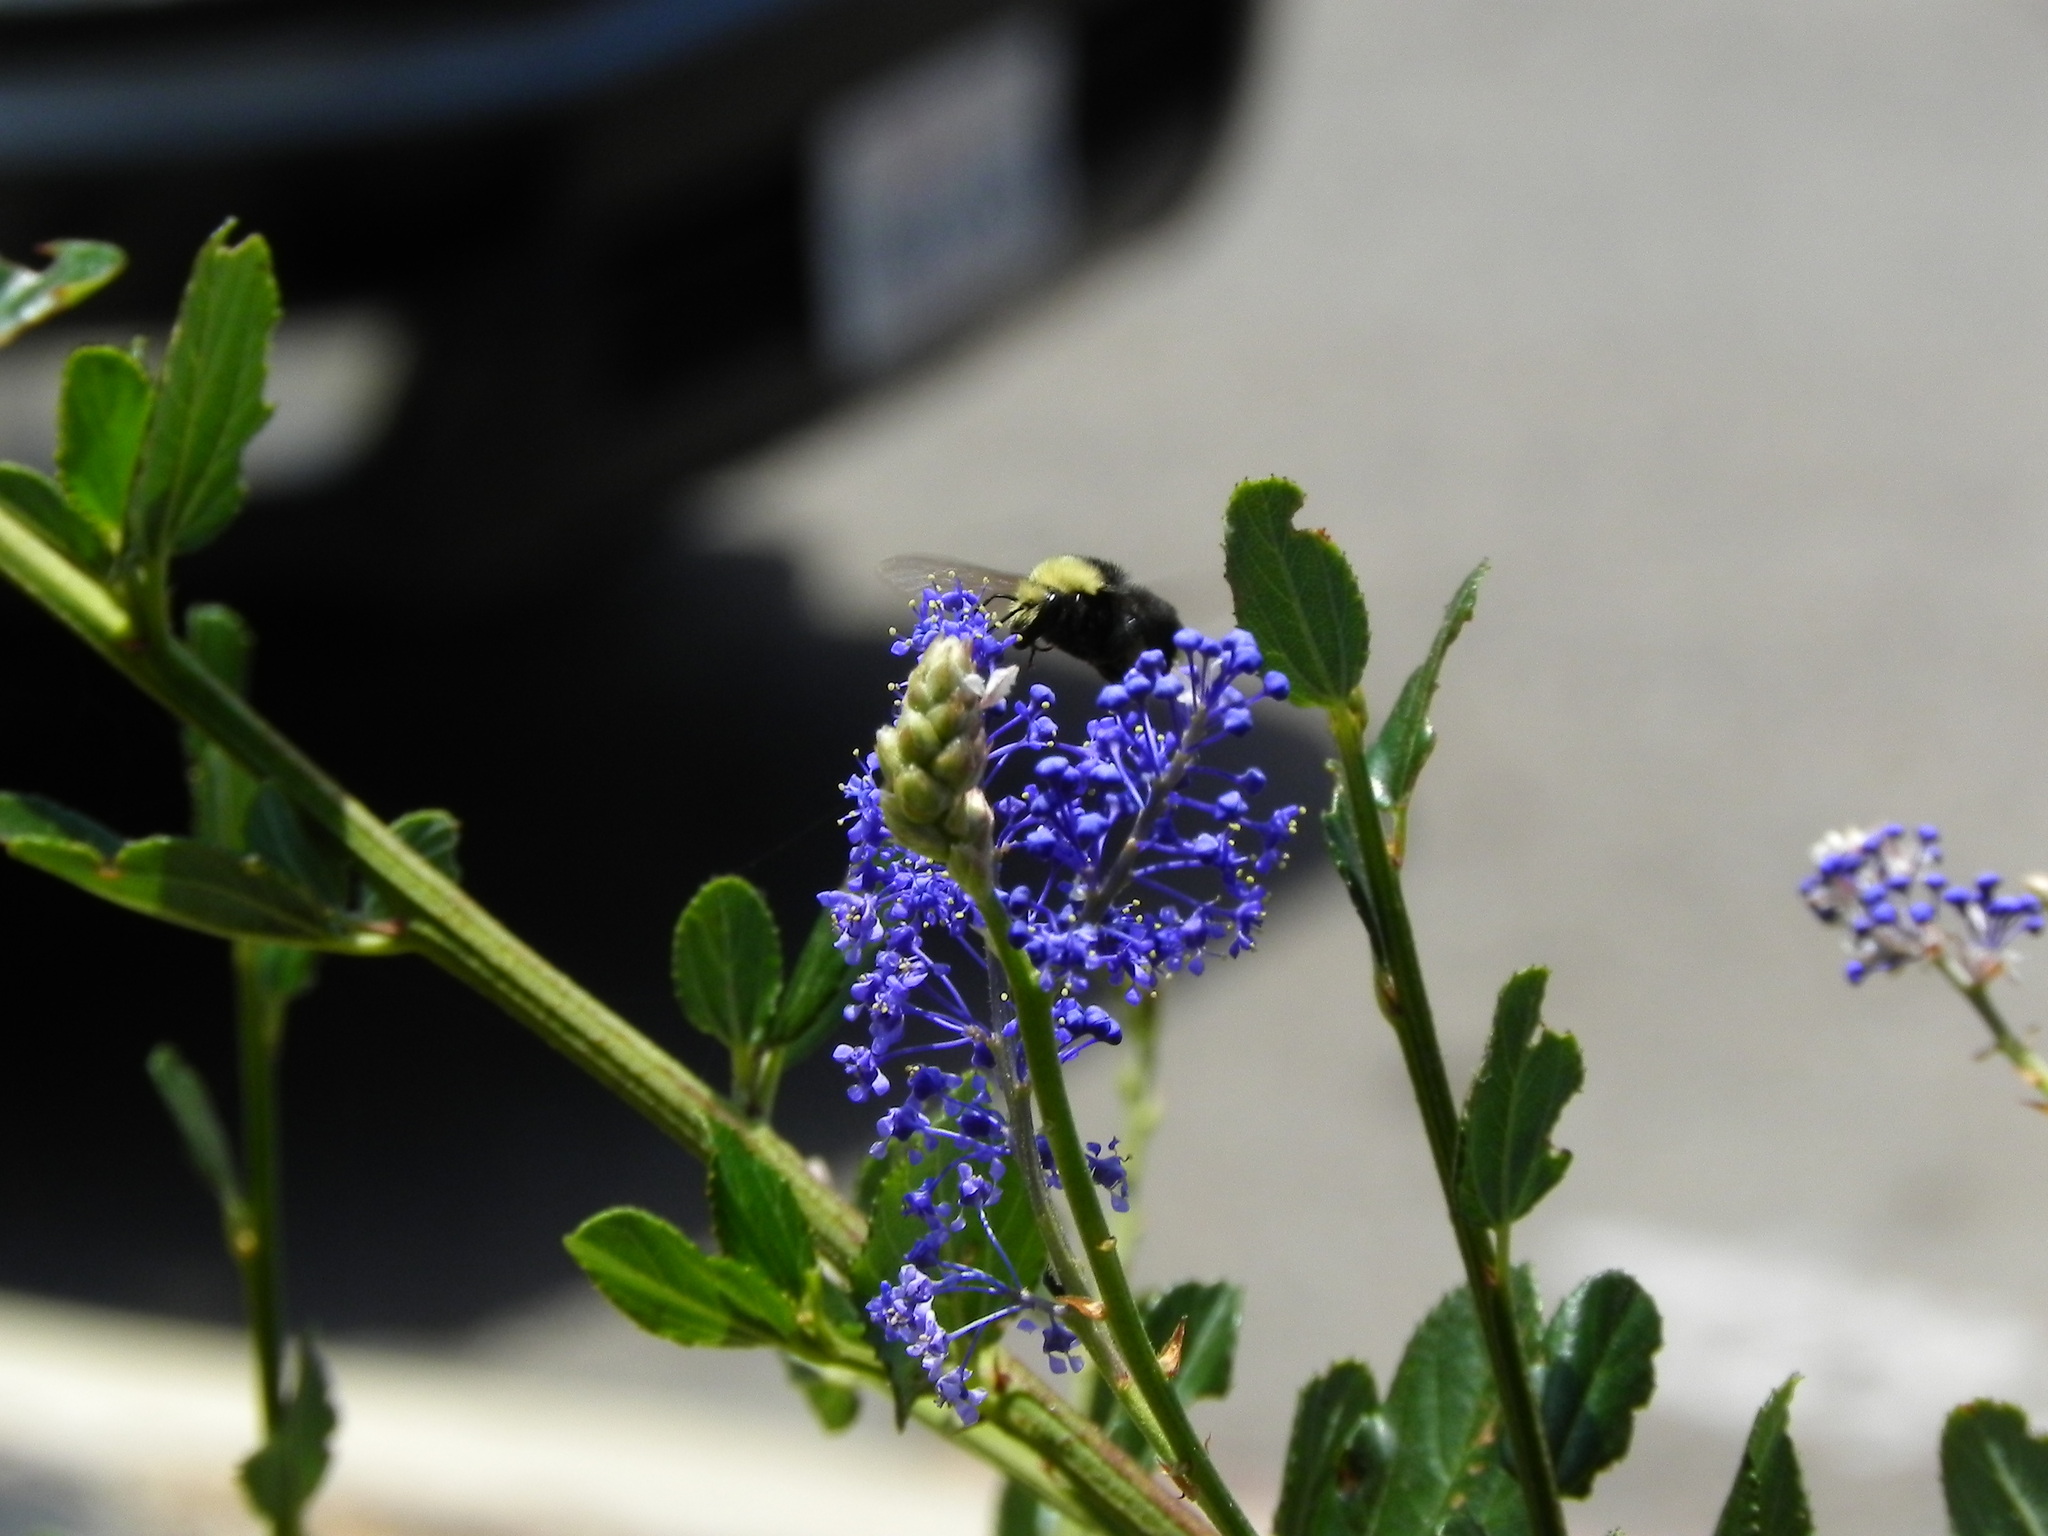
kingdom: Animalia
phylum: Arthropoda
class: Insecta
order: Hymenoptera
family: Apidae
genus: Bombus
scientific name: Bombus vosnesenskii
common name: Vosnesensky bumble bee
